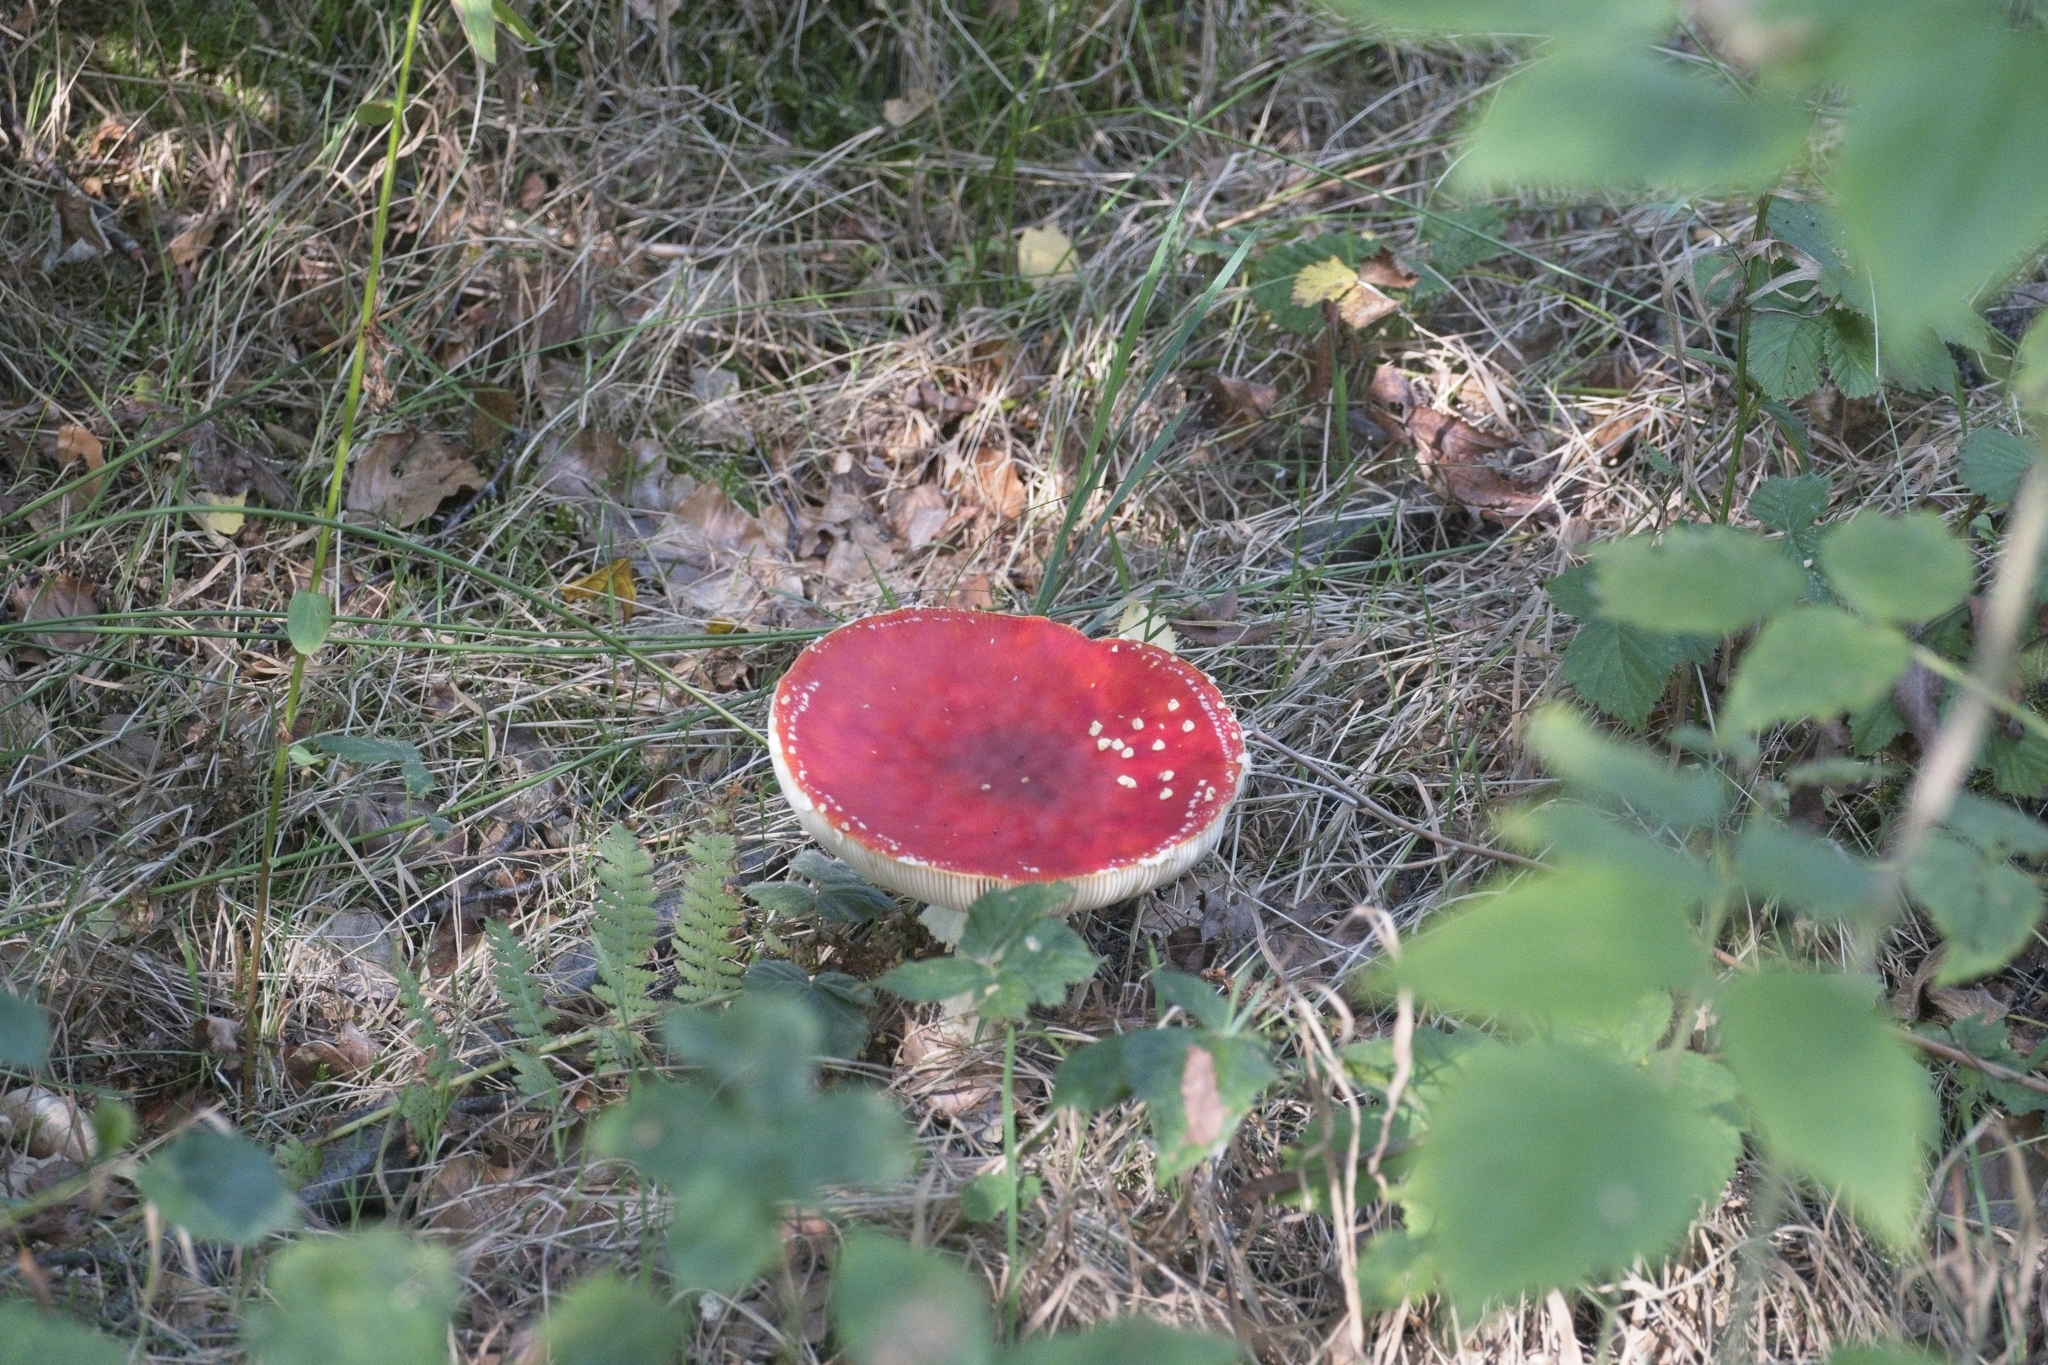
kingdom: Fungi
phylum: Basidiomycota
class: Agaricomycetes
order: Agaricales
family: Amanitaceae
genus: Amanita
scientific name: Amanita muscaria
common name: Fly agaric
